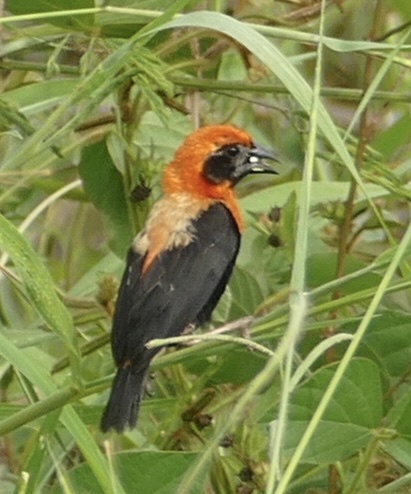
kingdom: Animalia
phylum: Chordata
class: Aves
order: Passeriformes
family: Ploceidae
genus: Euplectes
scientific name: Euplectes hordeaceus
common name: Black-winged red bishop
